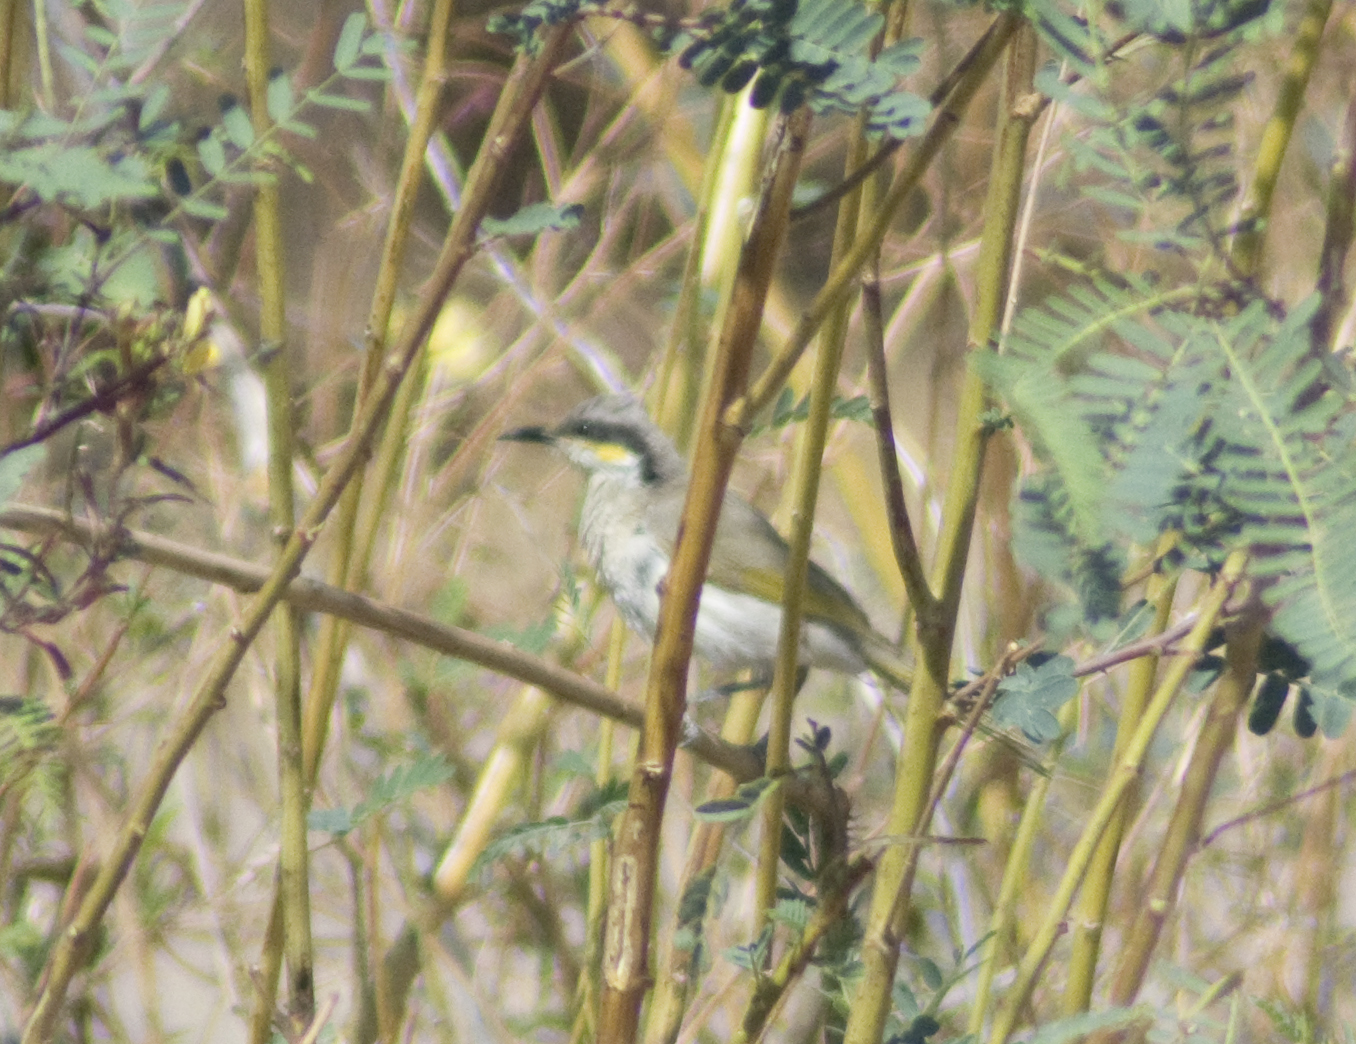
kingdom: Animalia
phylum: Chordata
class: Aves
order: Passeriformes
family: Meliphagidae
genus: Gavicalis
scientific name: Gavicalis virescens
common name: Singing honeyeater
